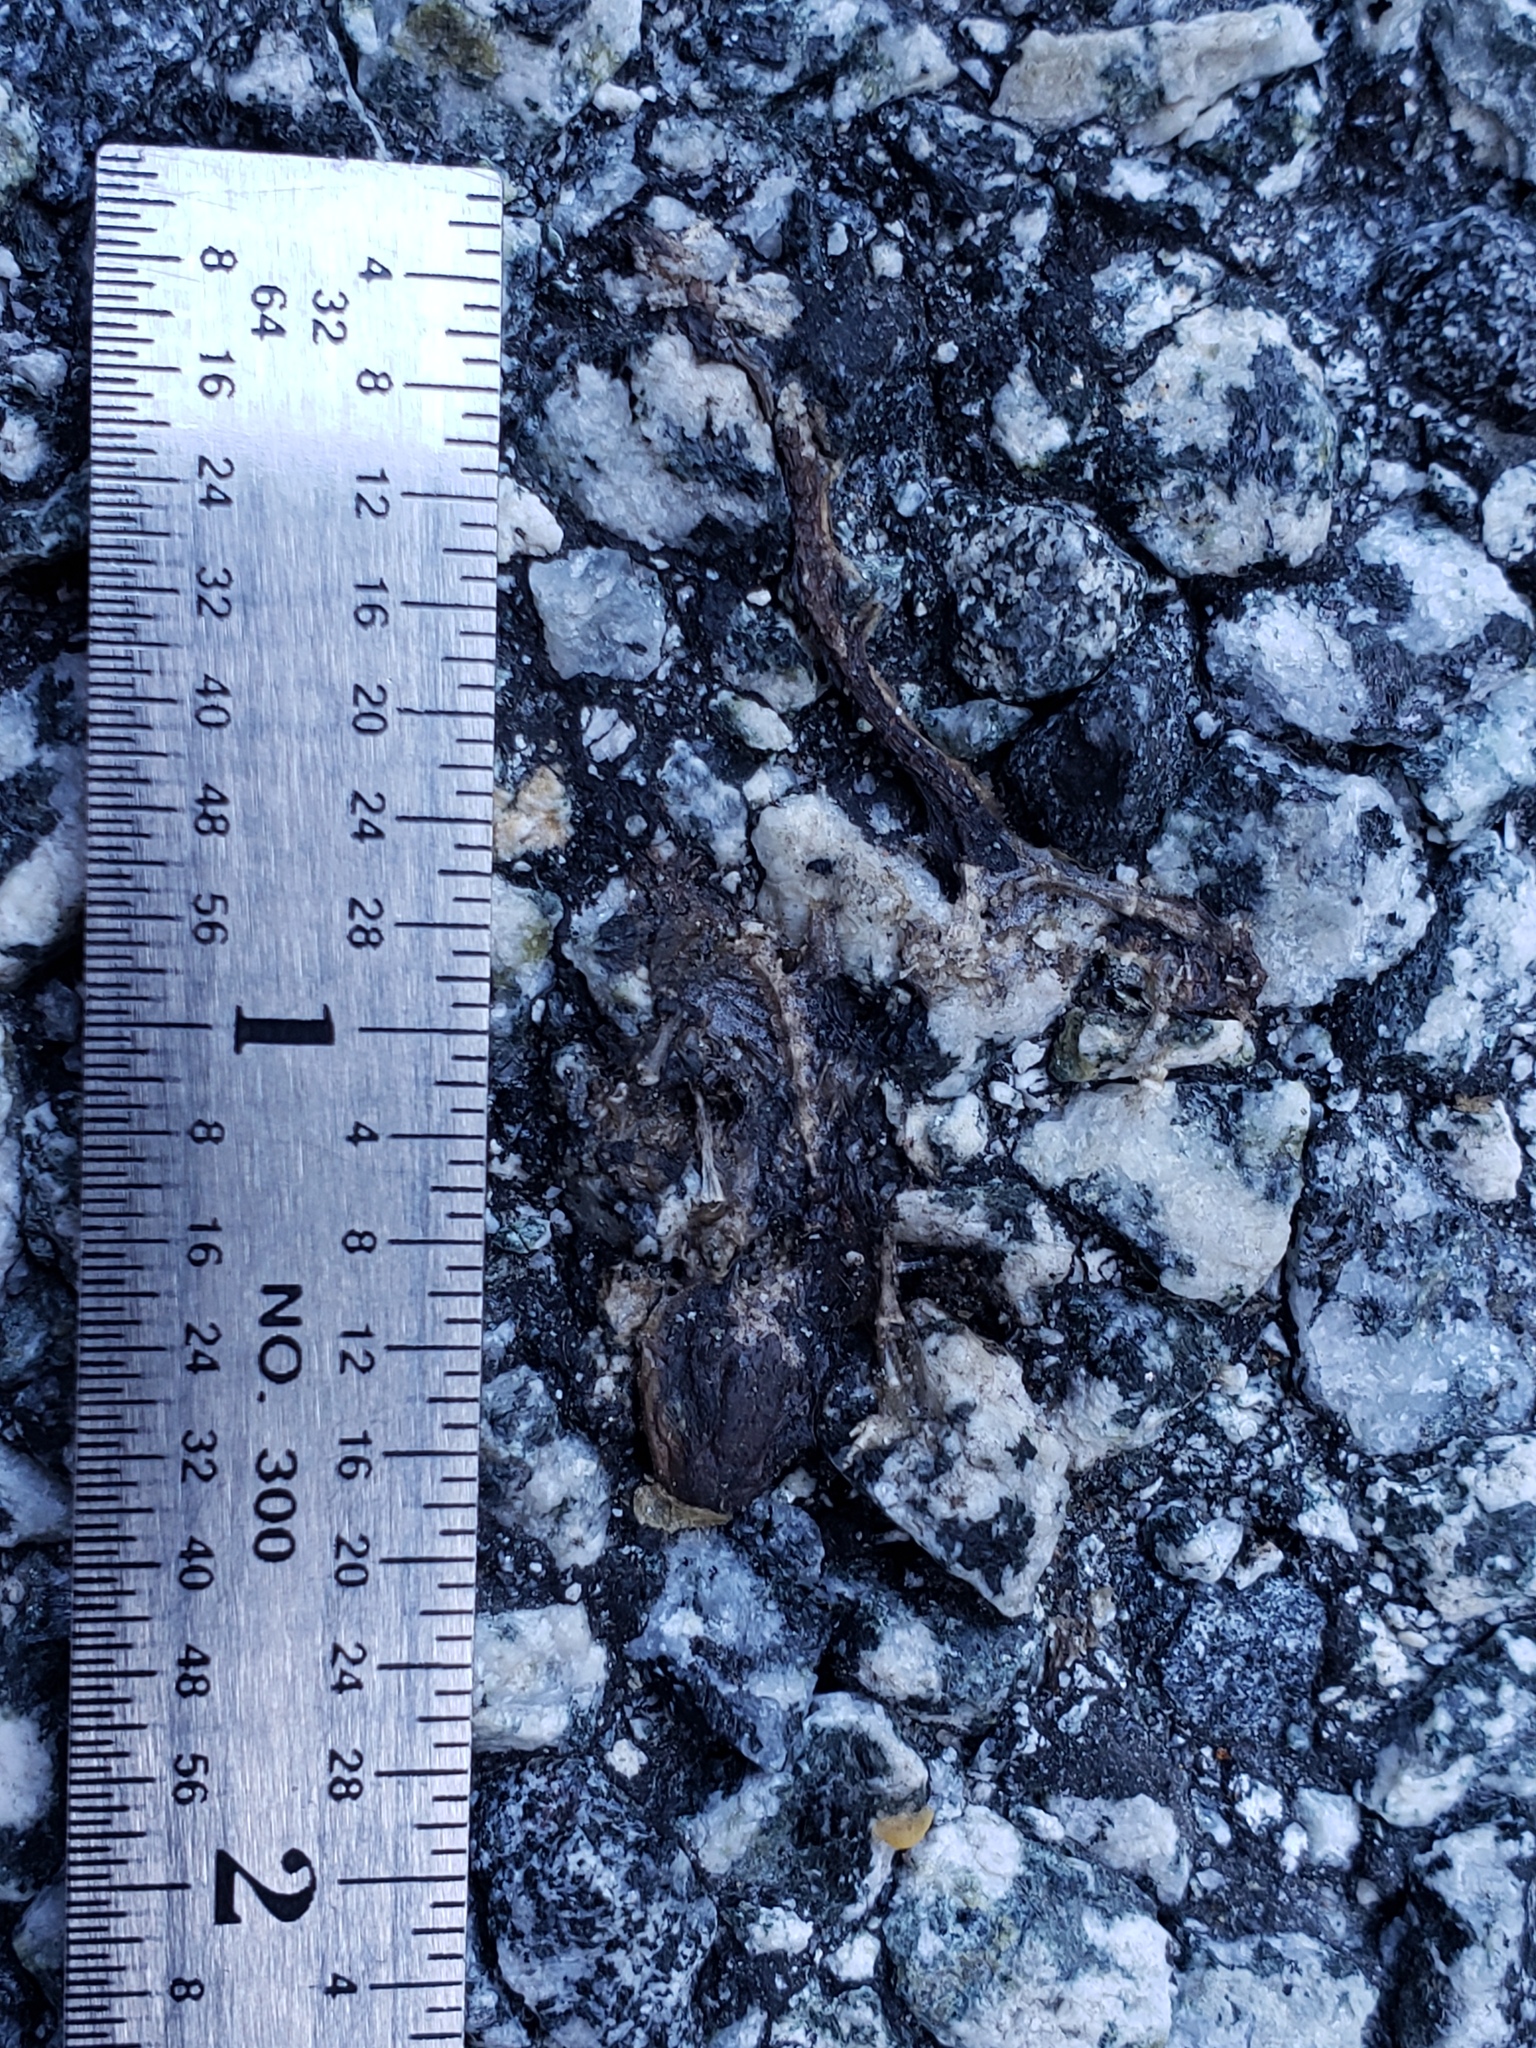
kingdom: Animalia
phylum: Chordata
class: Amphibia
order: Caudata
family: Salamandridae
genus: Taricha
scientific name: Taricha
